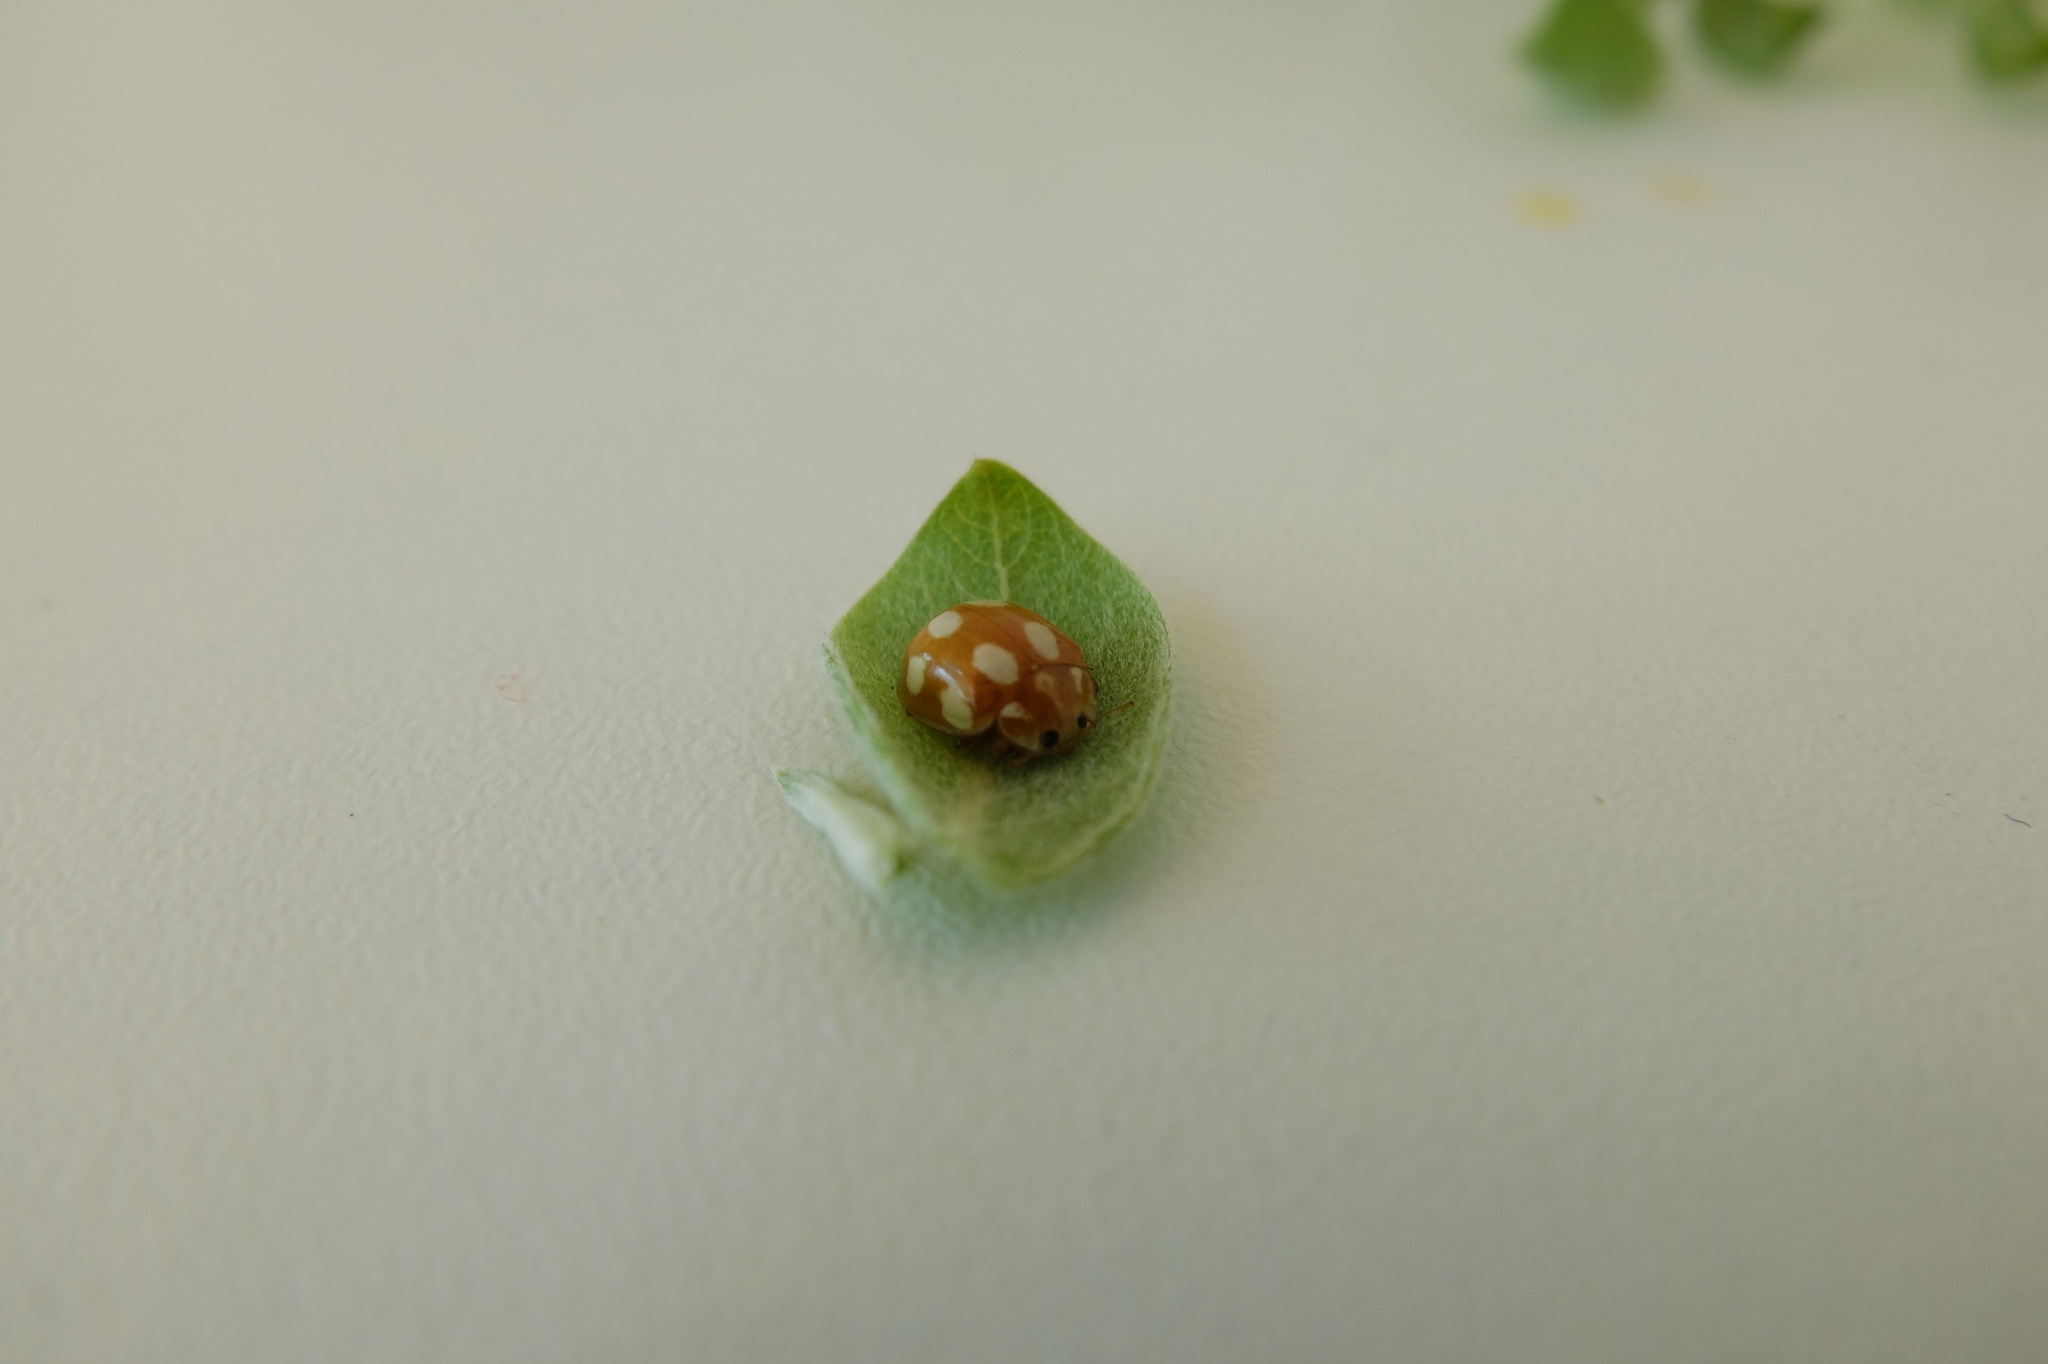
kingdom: Animalia
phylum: Arthropoda
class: Insecta
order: Coleoptera
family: Coccinellidae
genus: Calvia
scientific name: Calvia decemguttata
